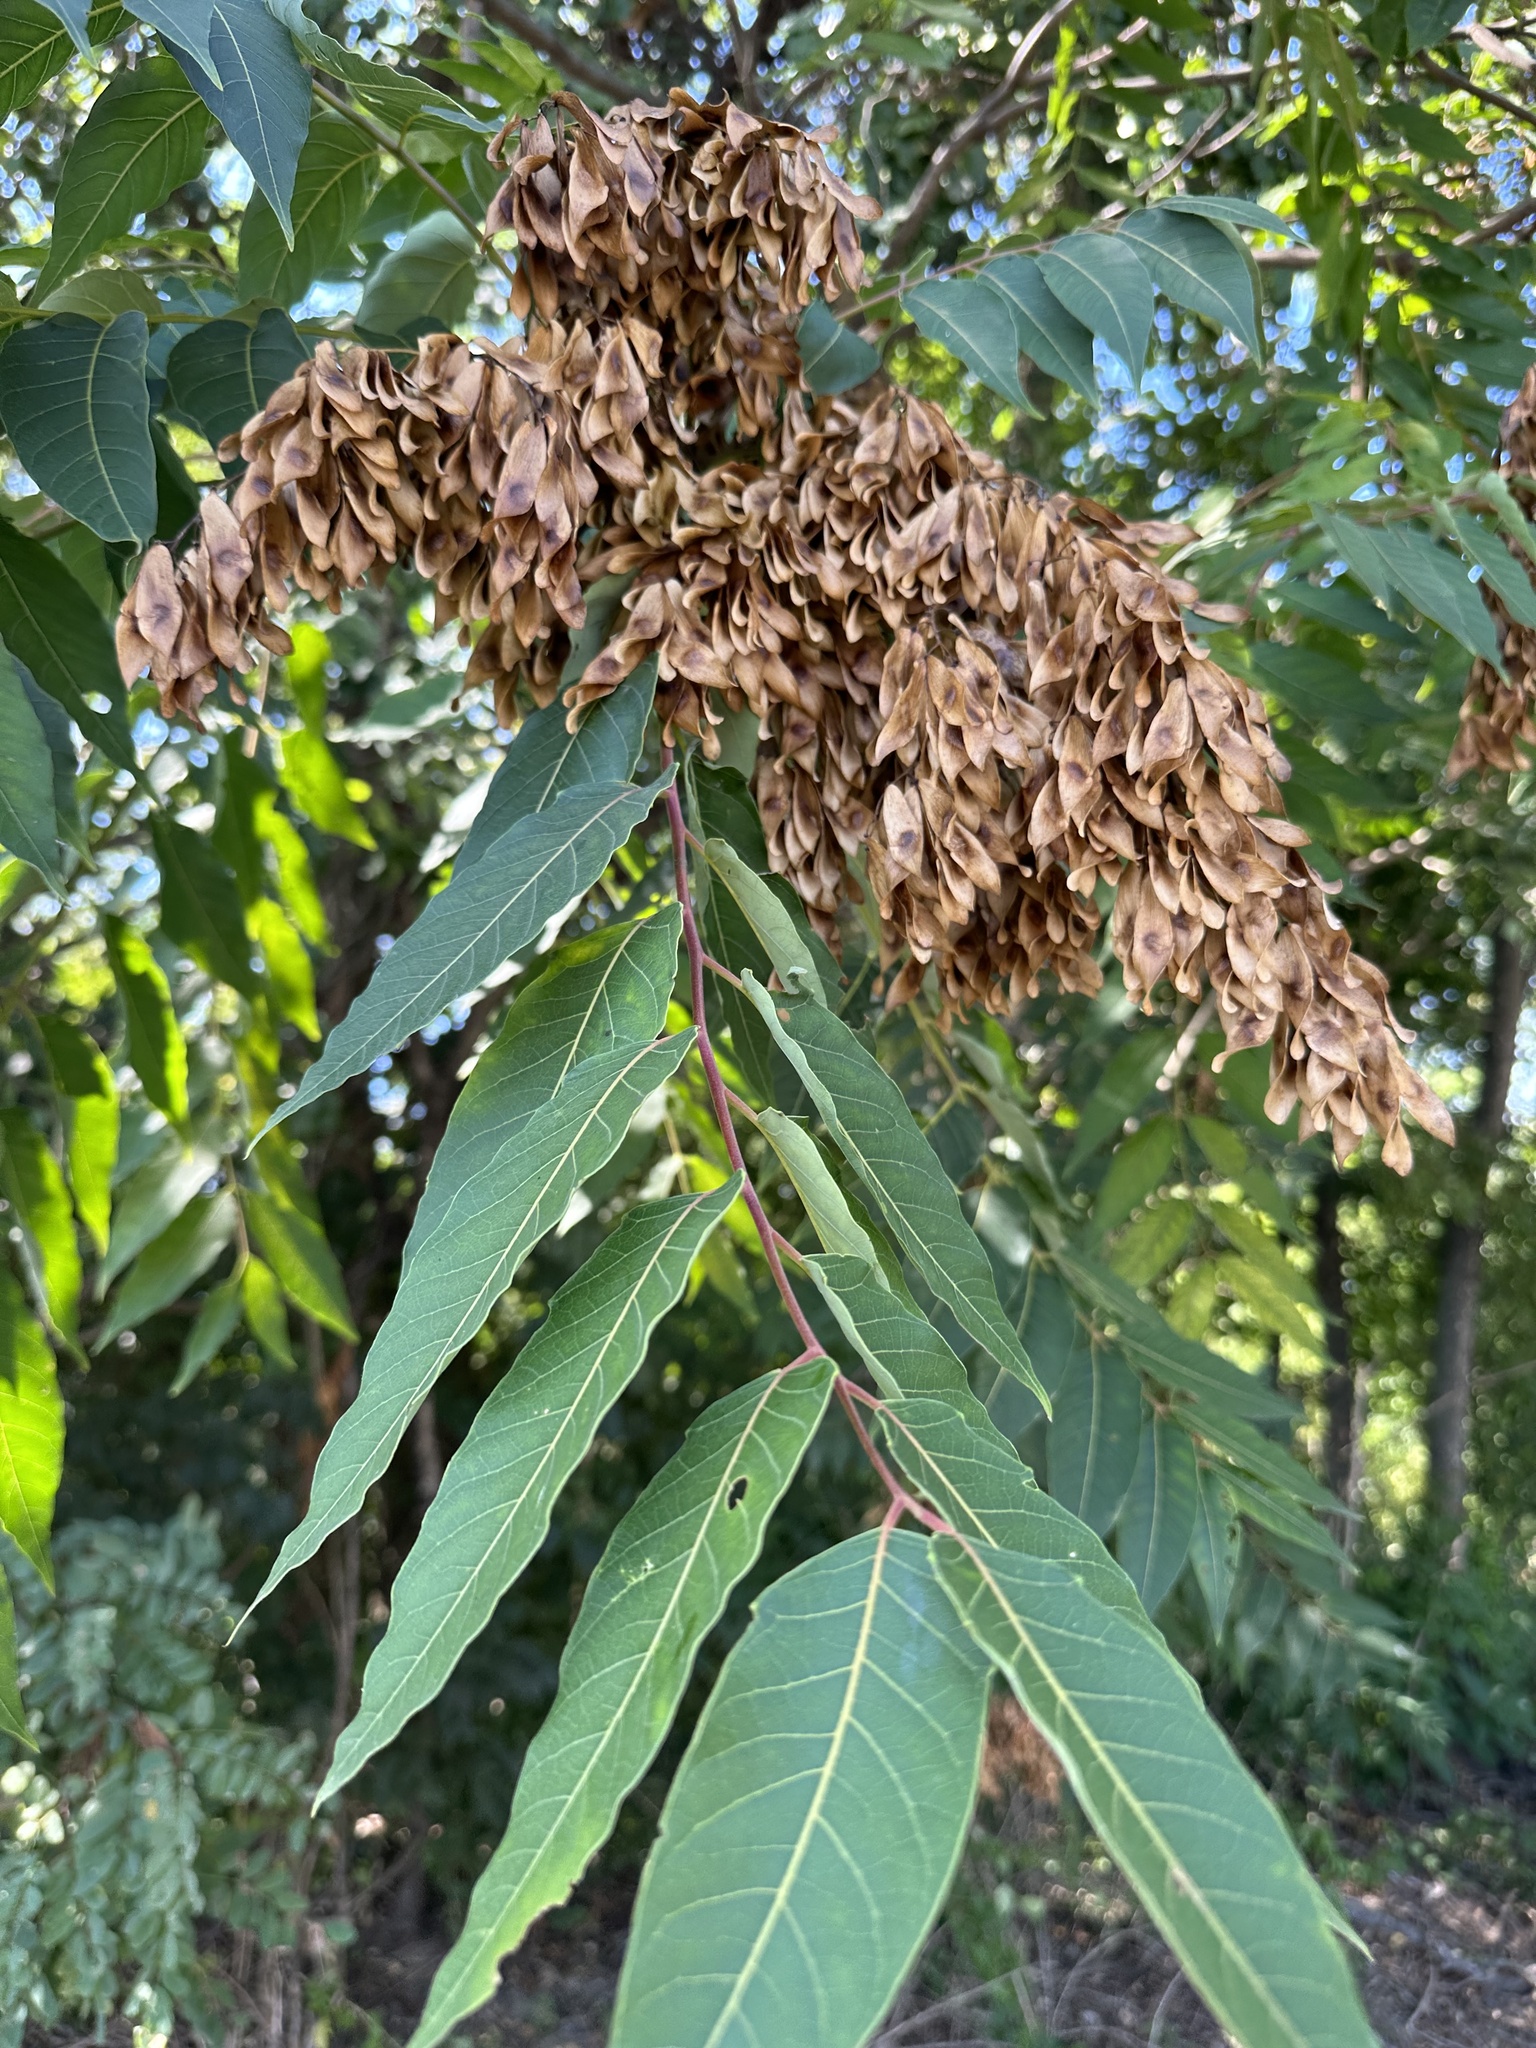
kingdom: Plantae
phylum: Tracheophyta
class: Magnoliopsida
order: Sapindales
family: Simaroubaceae
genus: Ailanthus
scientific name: Ailanthus altissima
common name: Tree-of-heaven
